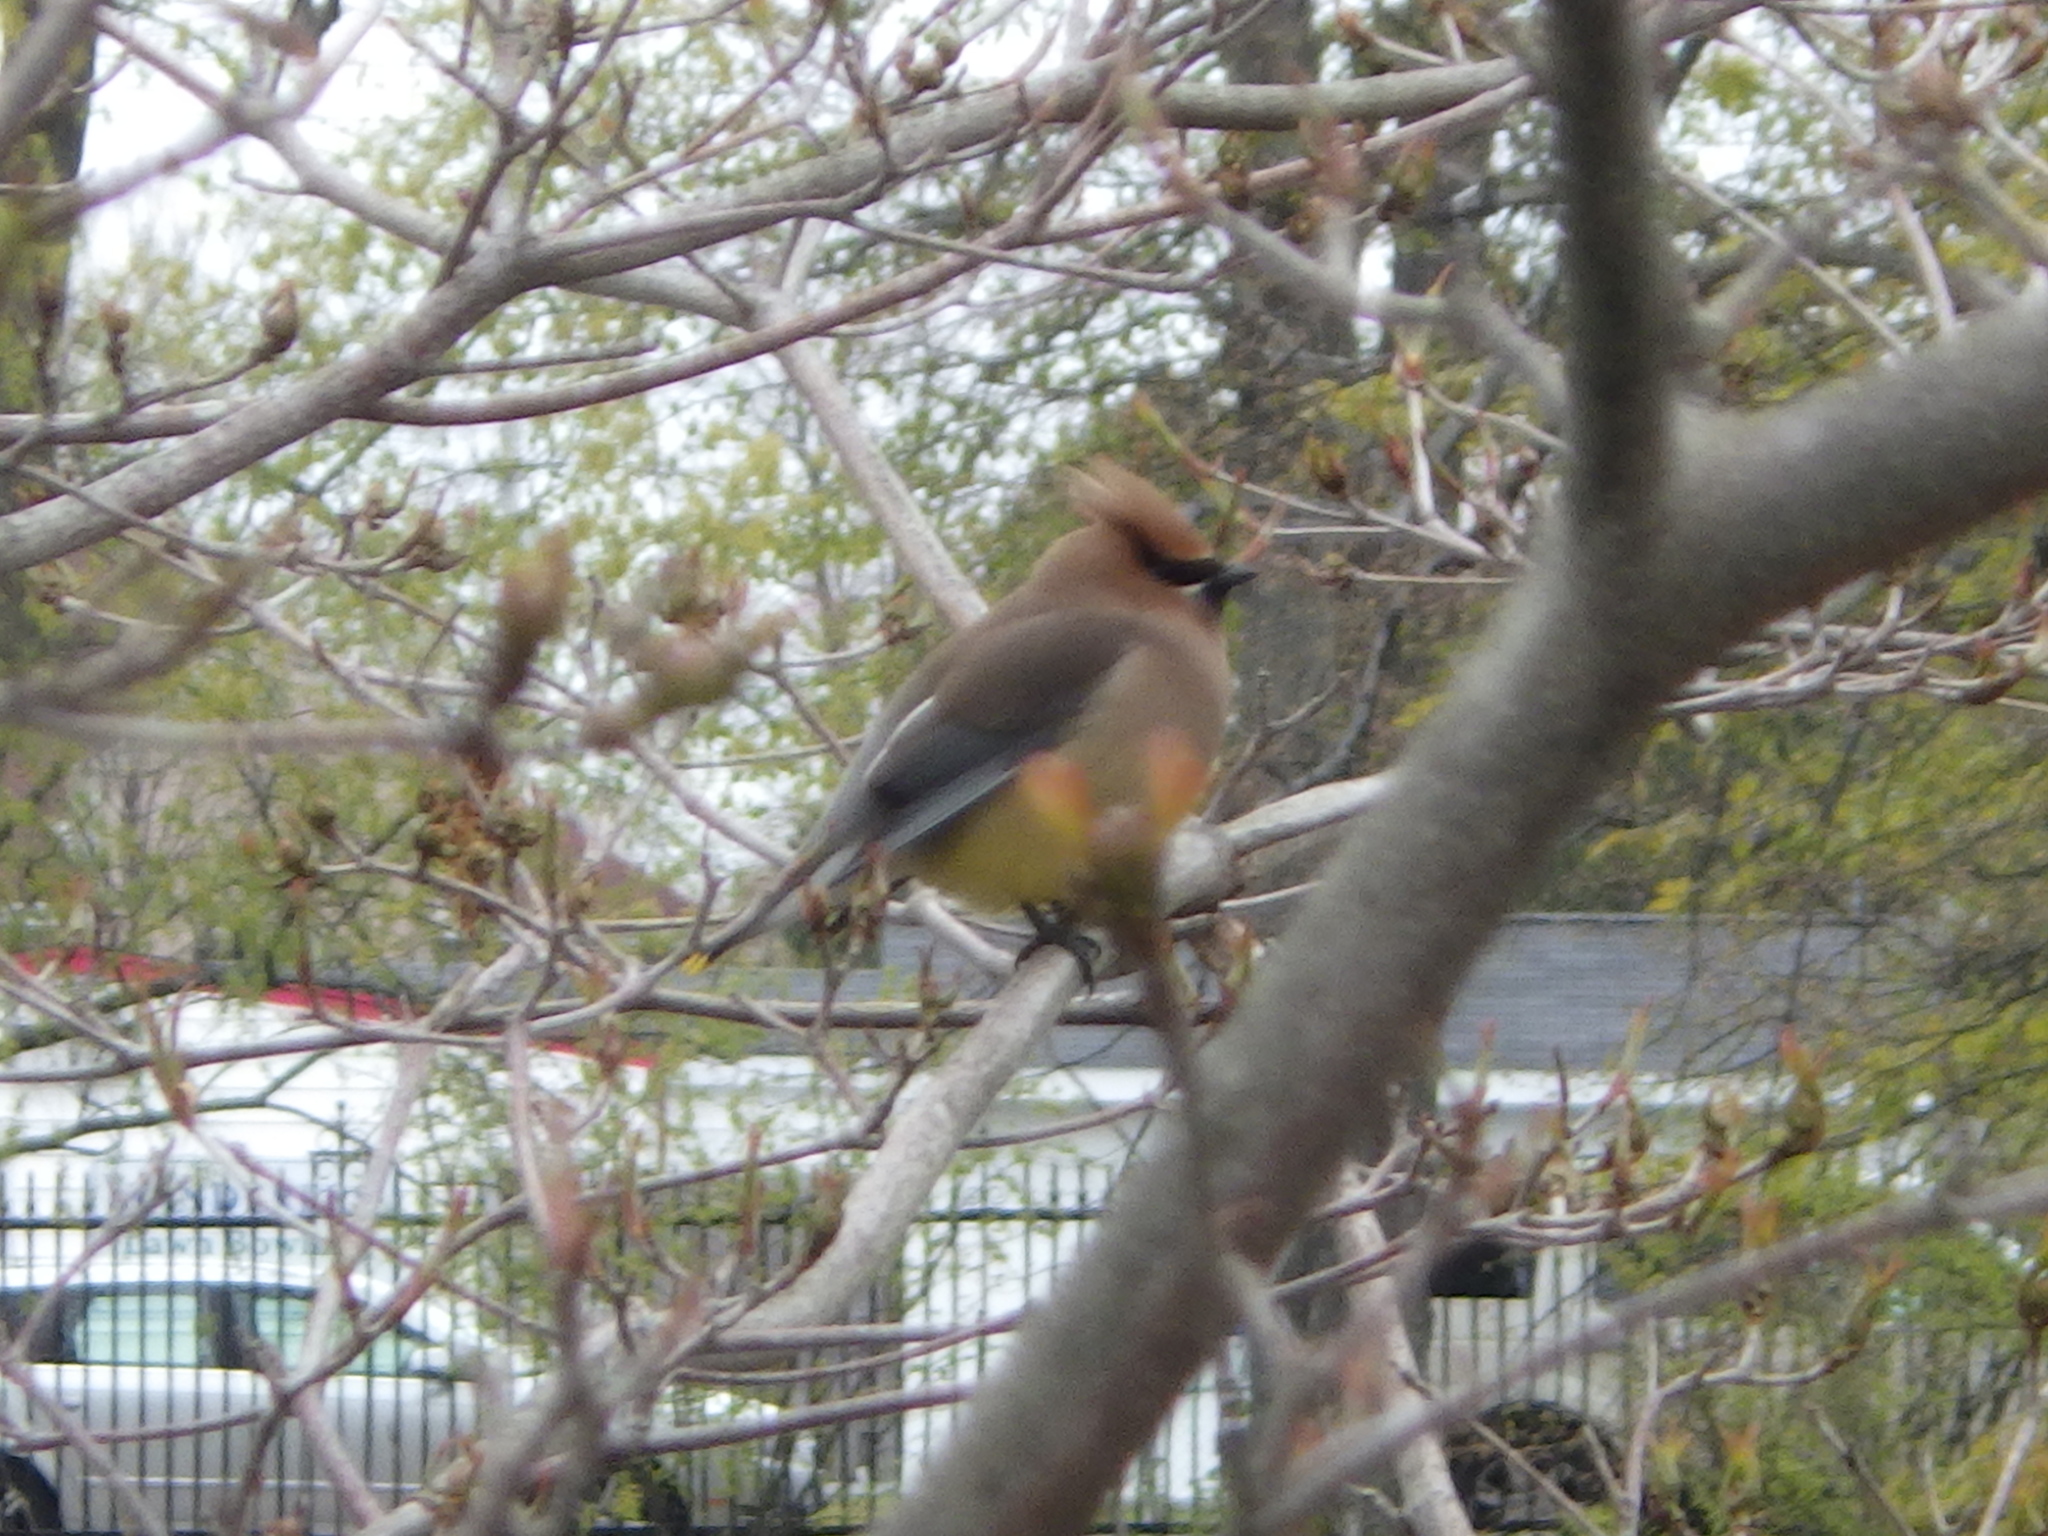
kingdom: Animalia
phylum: Chordata
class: Aves
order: Passeriformes
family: Bombycillidae
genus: Bombycilla
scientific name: Bombycilla cedrorum
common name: Cedar waxwing
